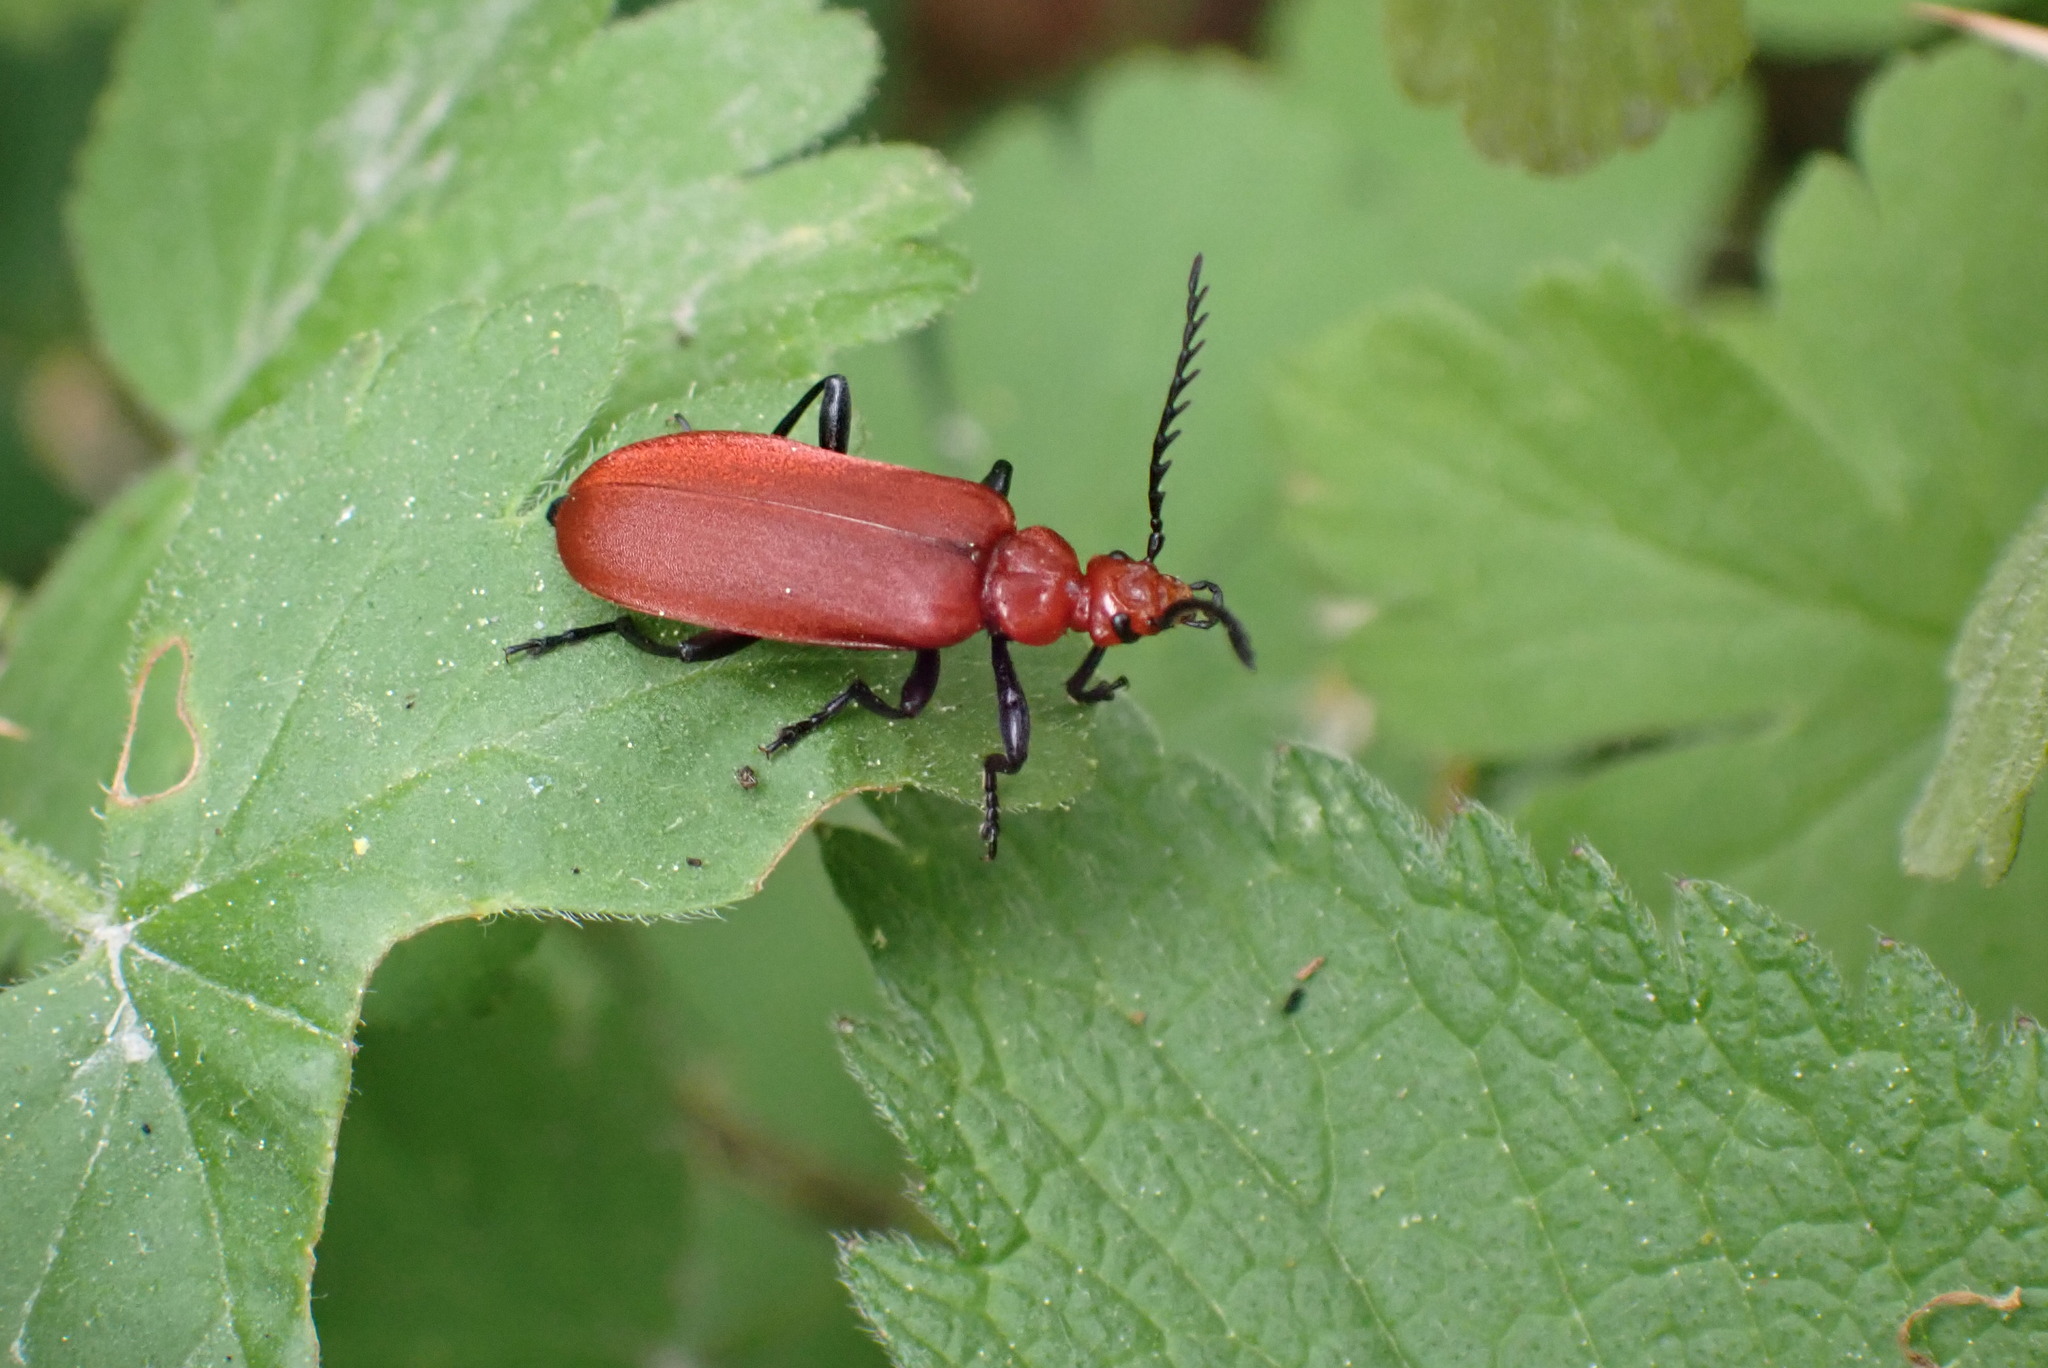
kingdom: Animalia
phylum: Arthropoda
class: Insecta
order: Coleoptera
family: Pyrochroidae
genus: Pyrochroa
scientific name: Pyrochroa serraticornis
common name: Red-headed cardinal beetle
